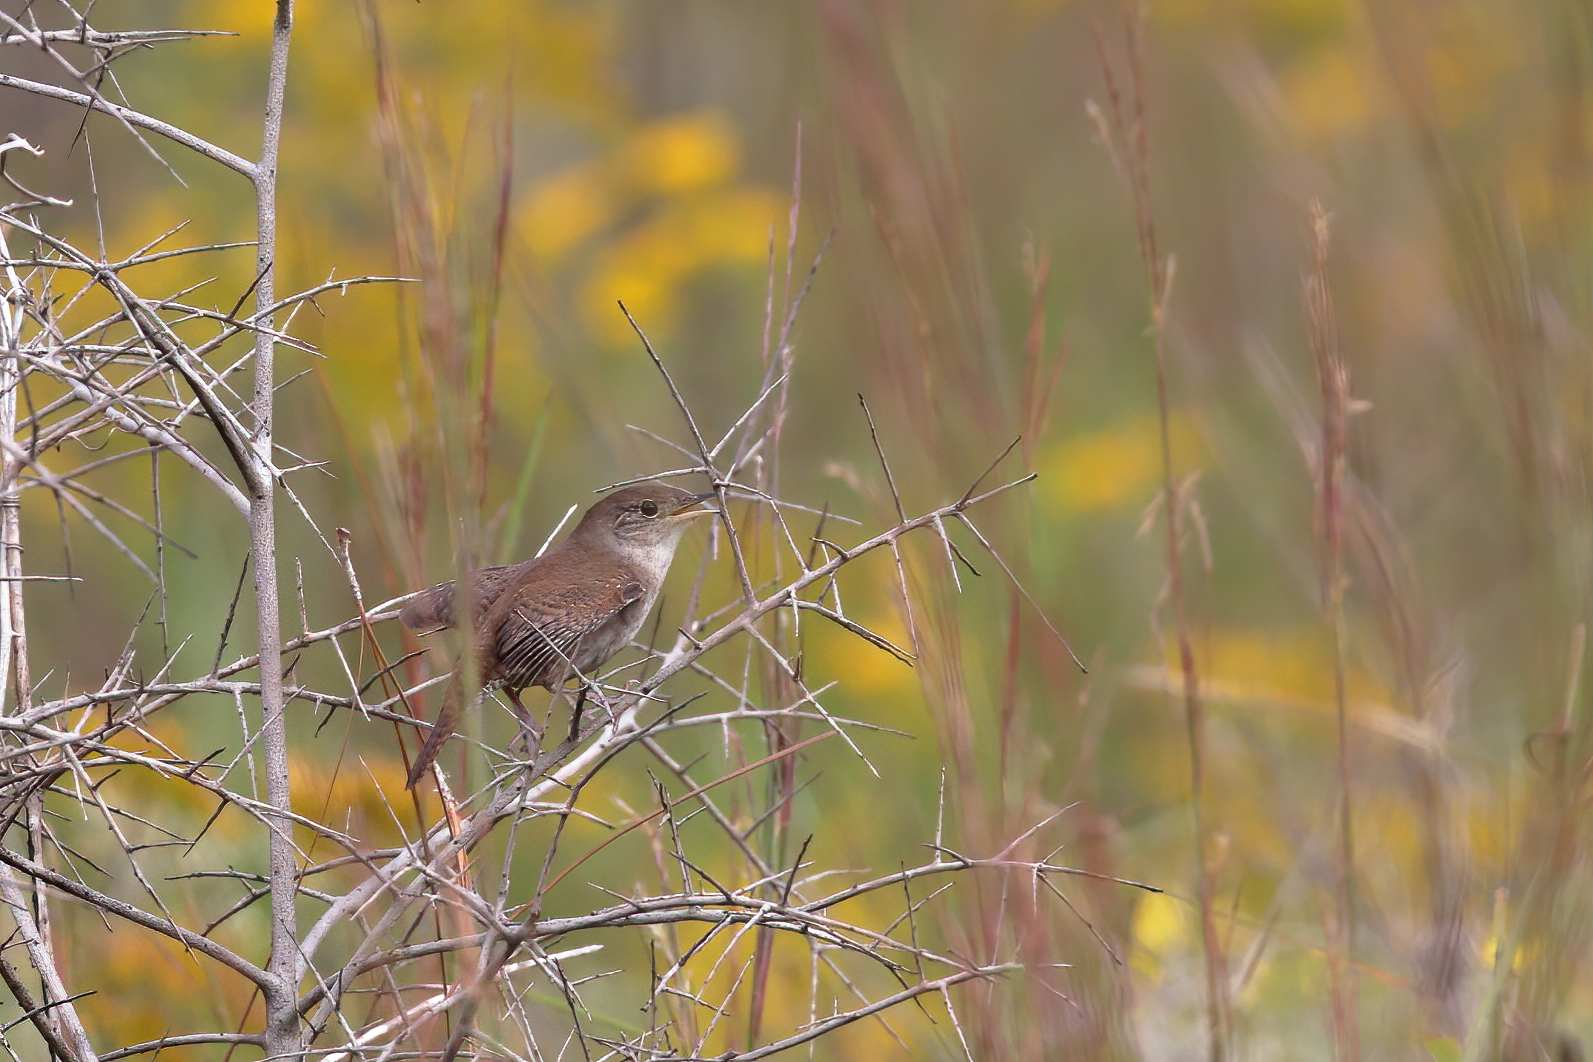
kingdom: Animalia
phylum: Chordata
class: Aves
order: Passeriformes
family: Troglodytidae
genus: Troglodytes
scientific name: Troglodytes aedon
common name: House wren
